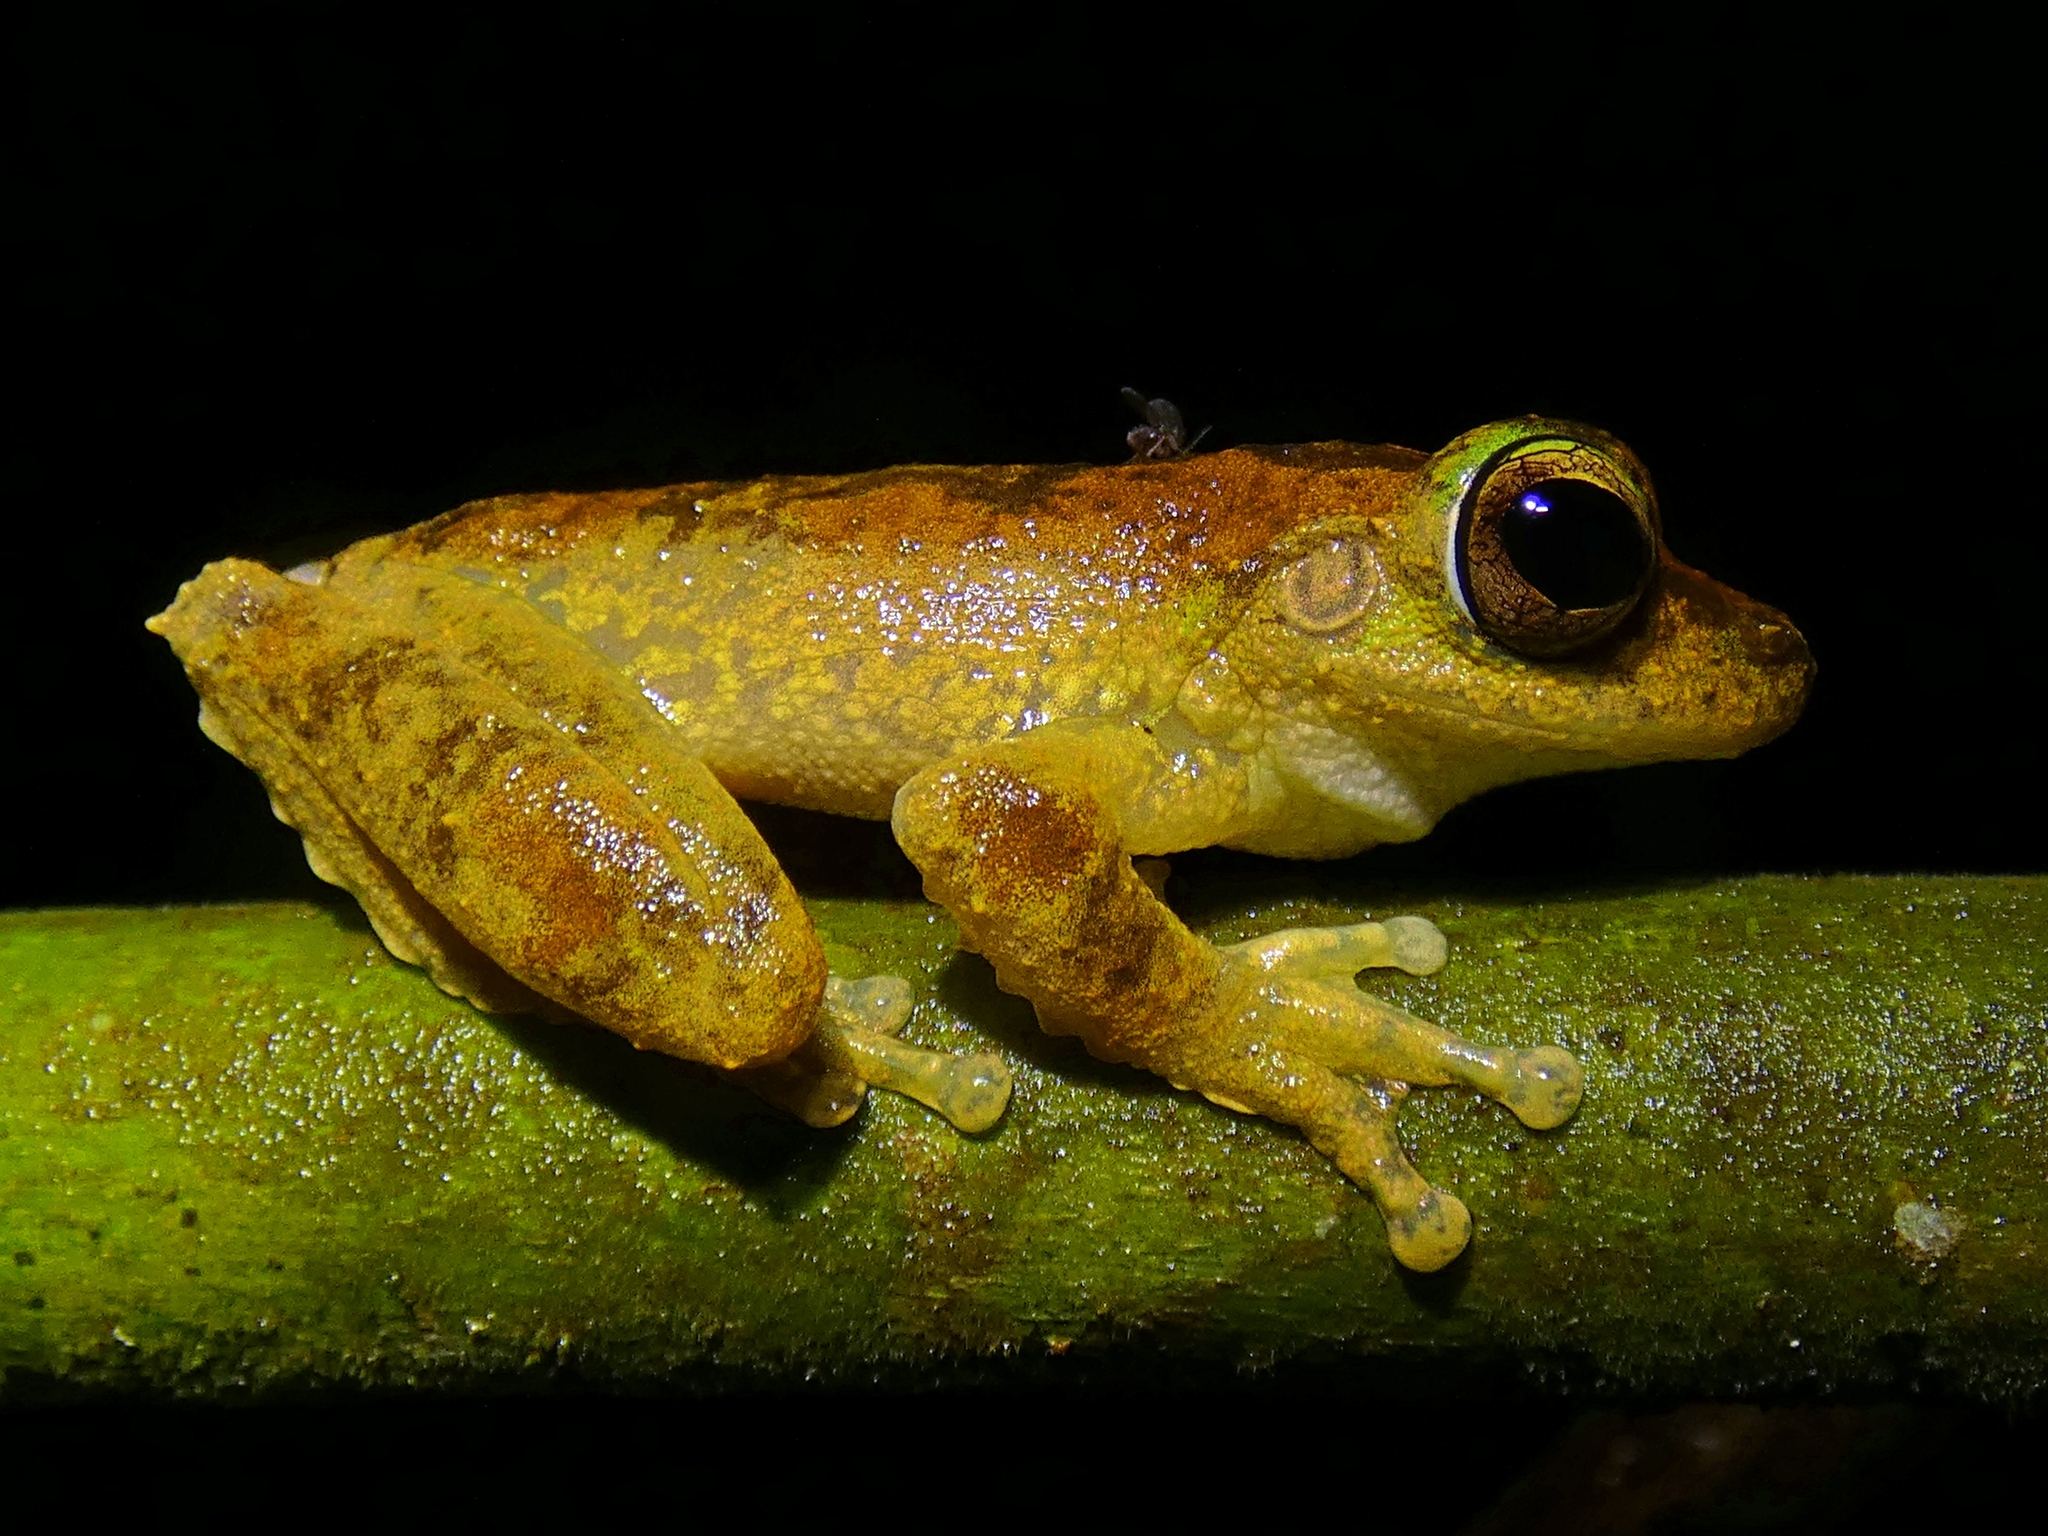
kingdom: Animalia
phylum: Chordata
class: Amphibia
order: Anura
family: Pelodryadidae
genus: Ranoidea
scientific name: Ranoidea serrata
